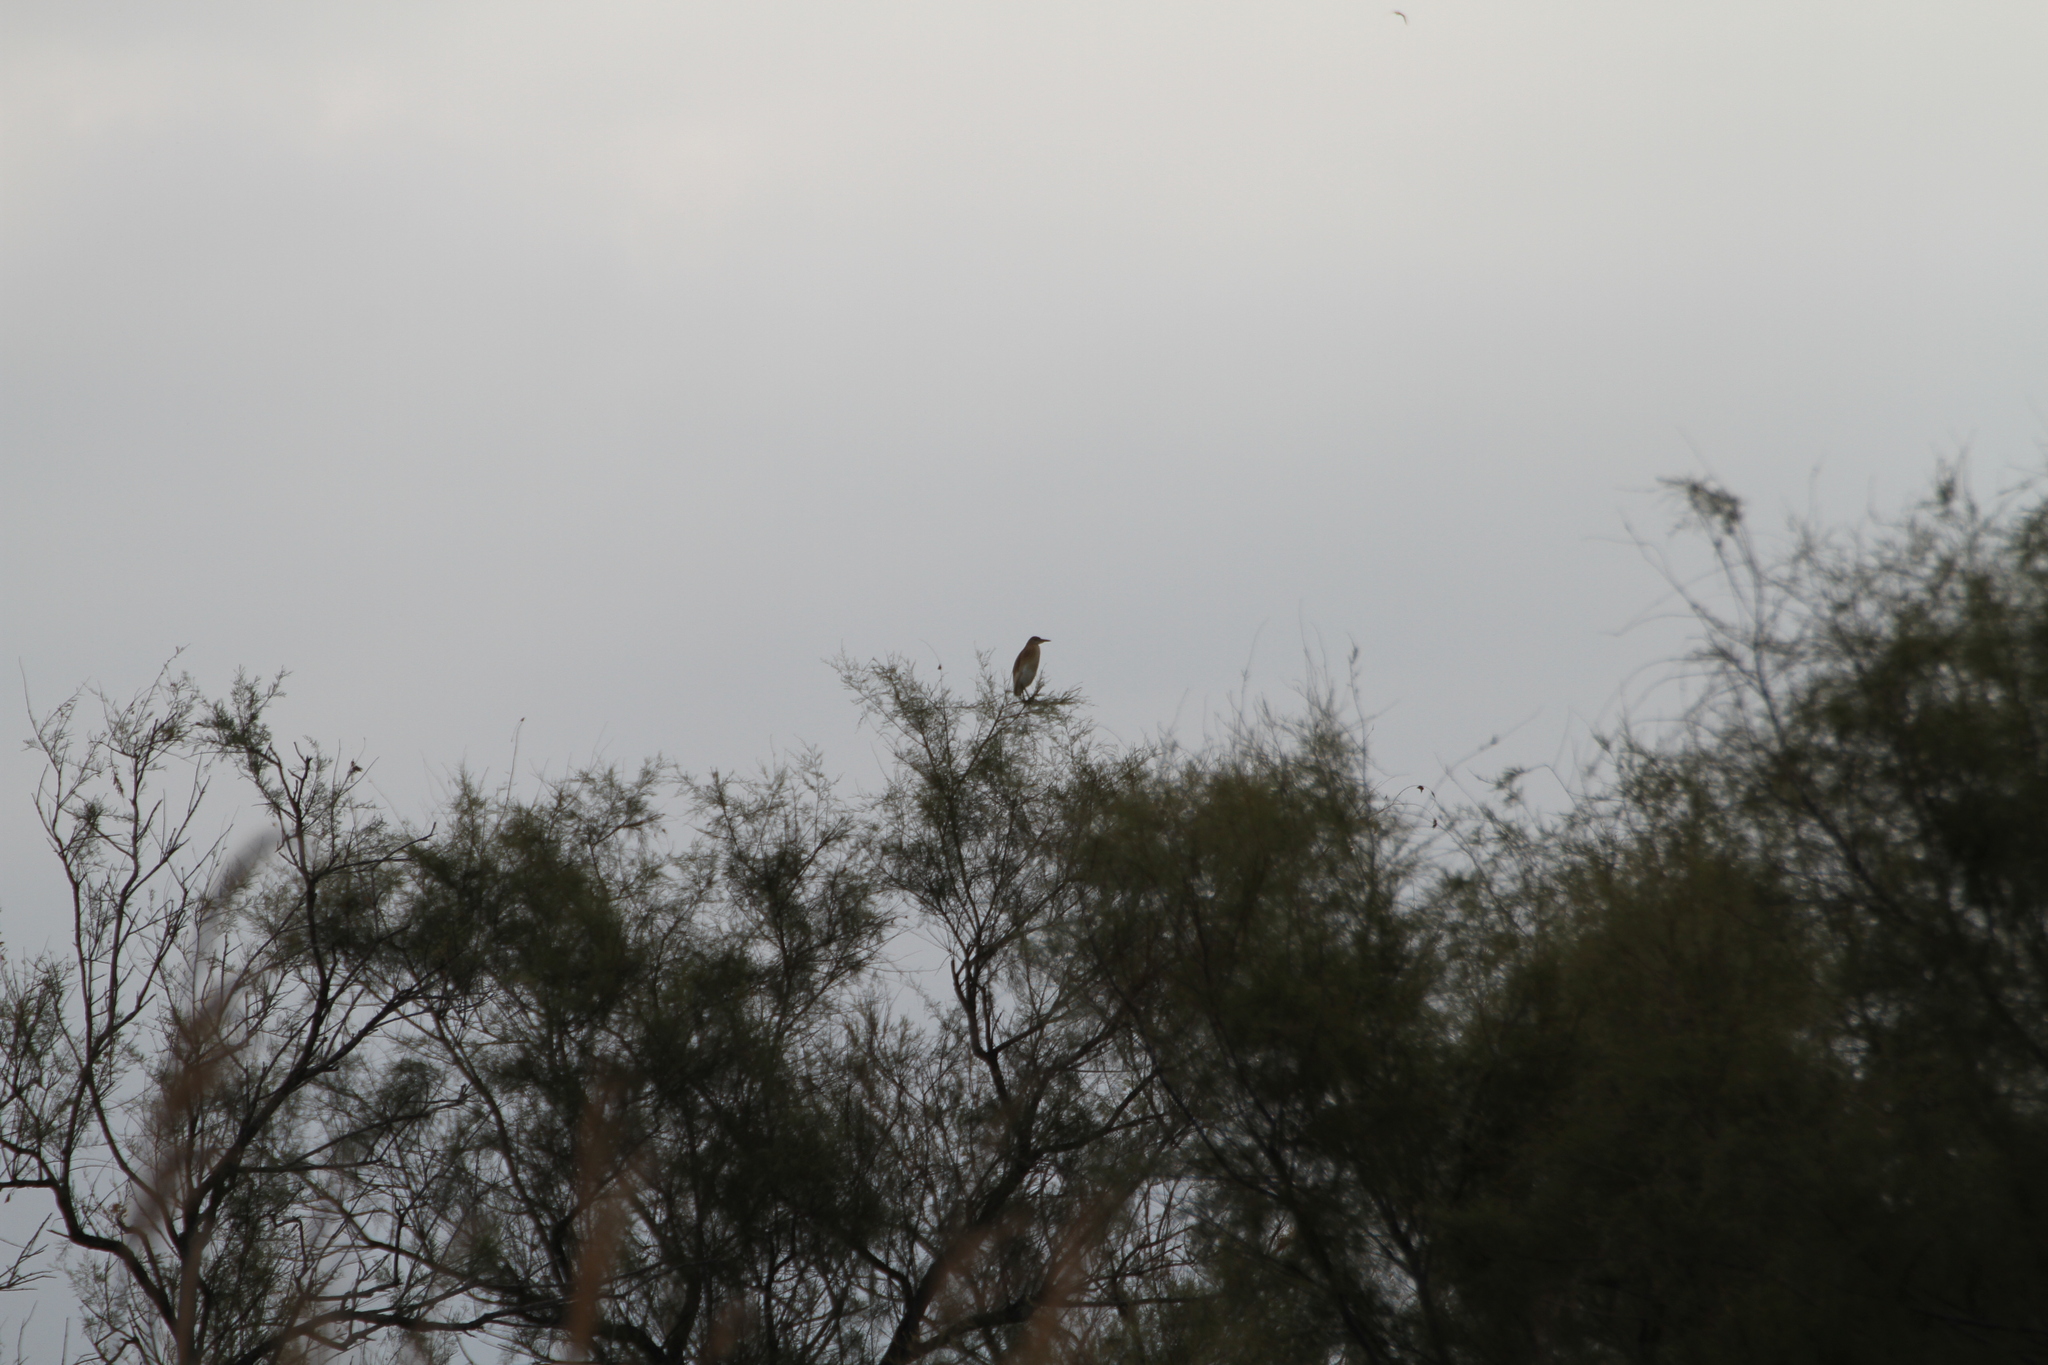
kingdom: Animalia
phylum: Chordata
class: Aves
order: Pelecaniformes
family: Ardeidae
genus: Ardeola
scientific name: Ardeola ralloides
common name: Squacco heron
